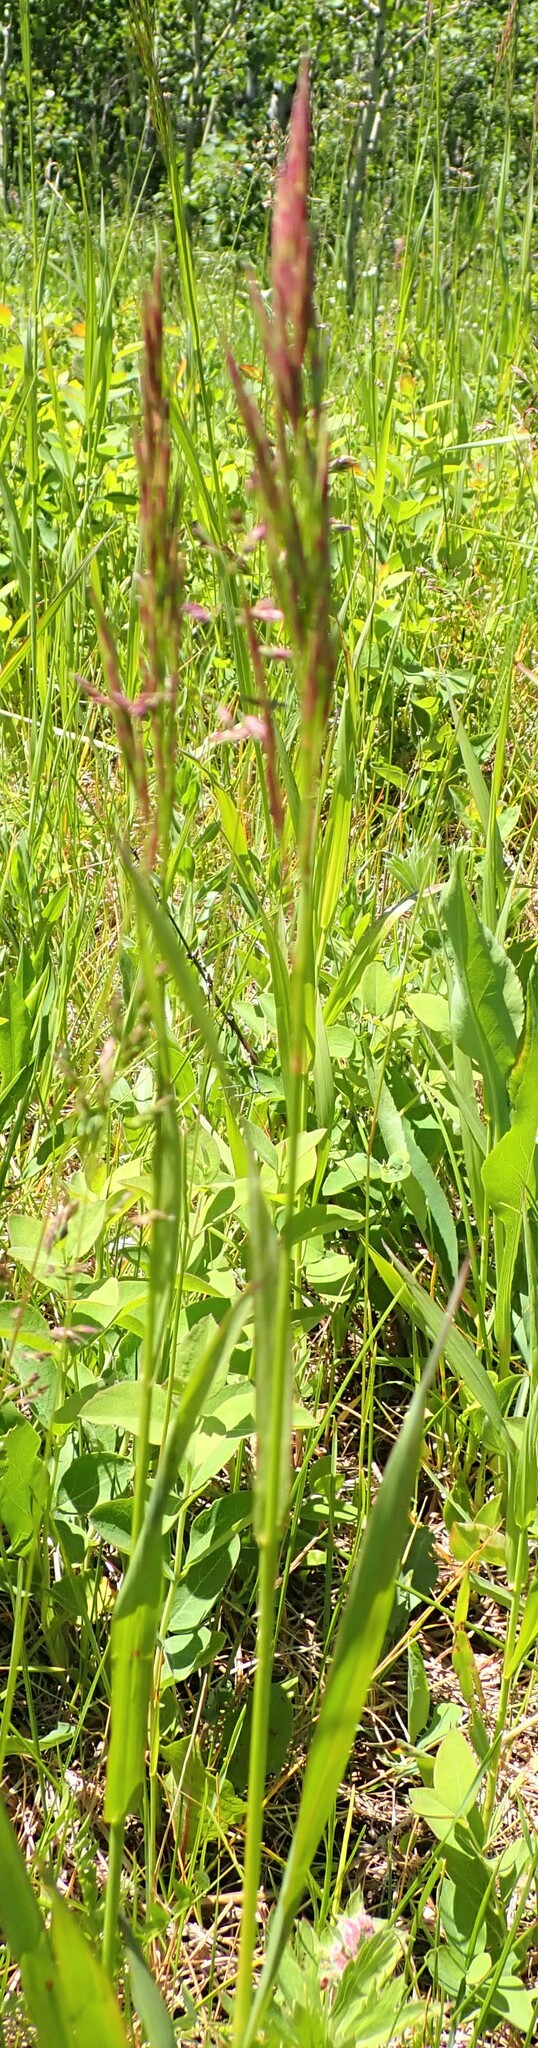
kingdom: Plantae
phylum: Tracheophyta
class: Liliopsida
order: Poales
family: Poaceae
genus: Bromus
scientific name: Bromus inermis
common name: Smooth brome
